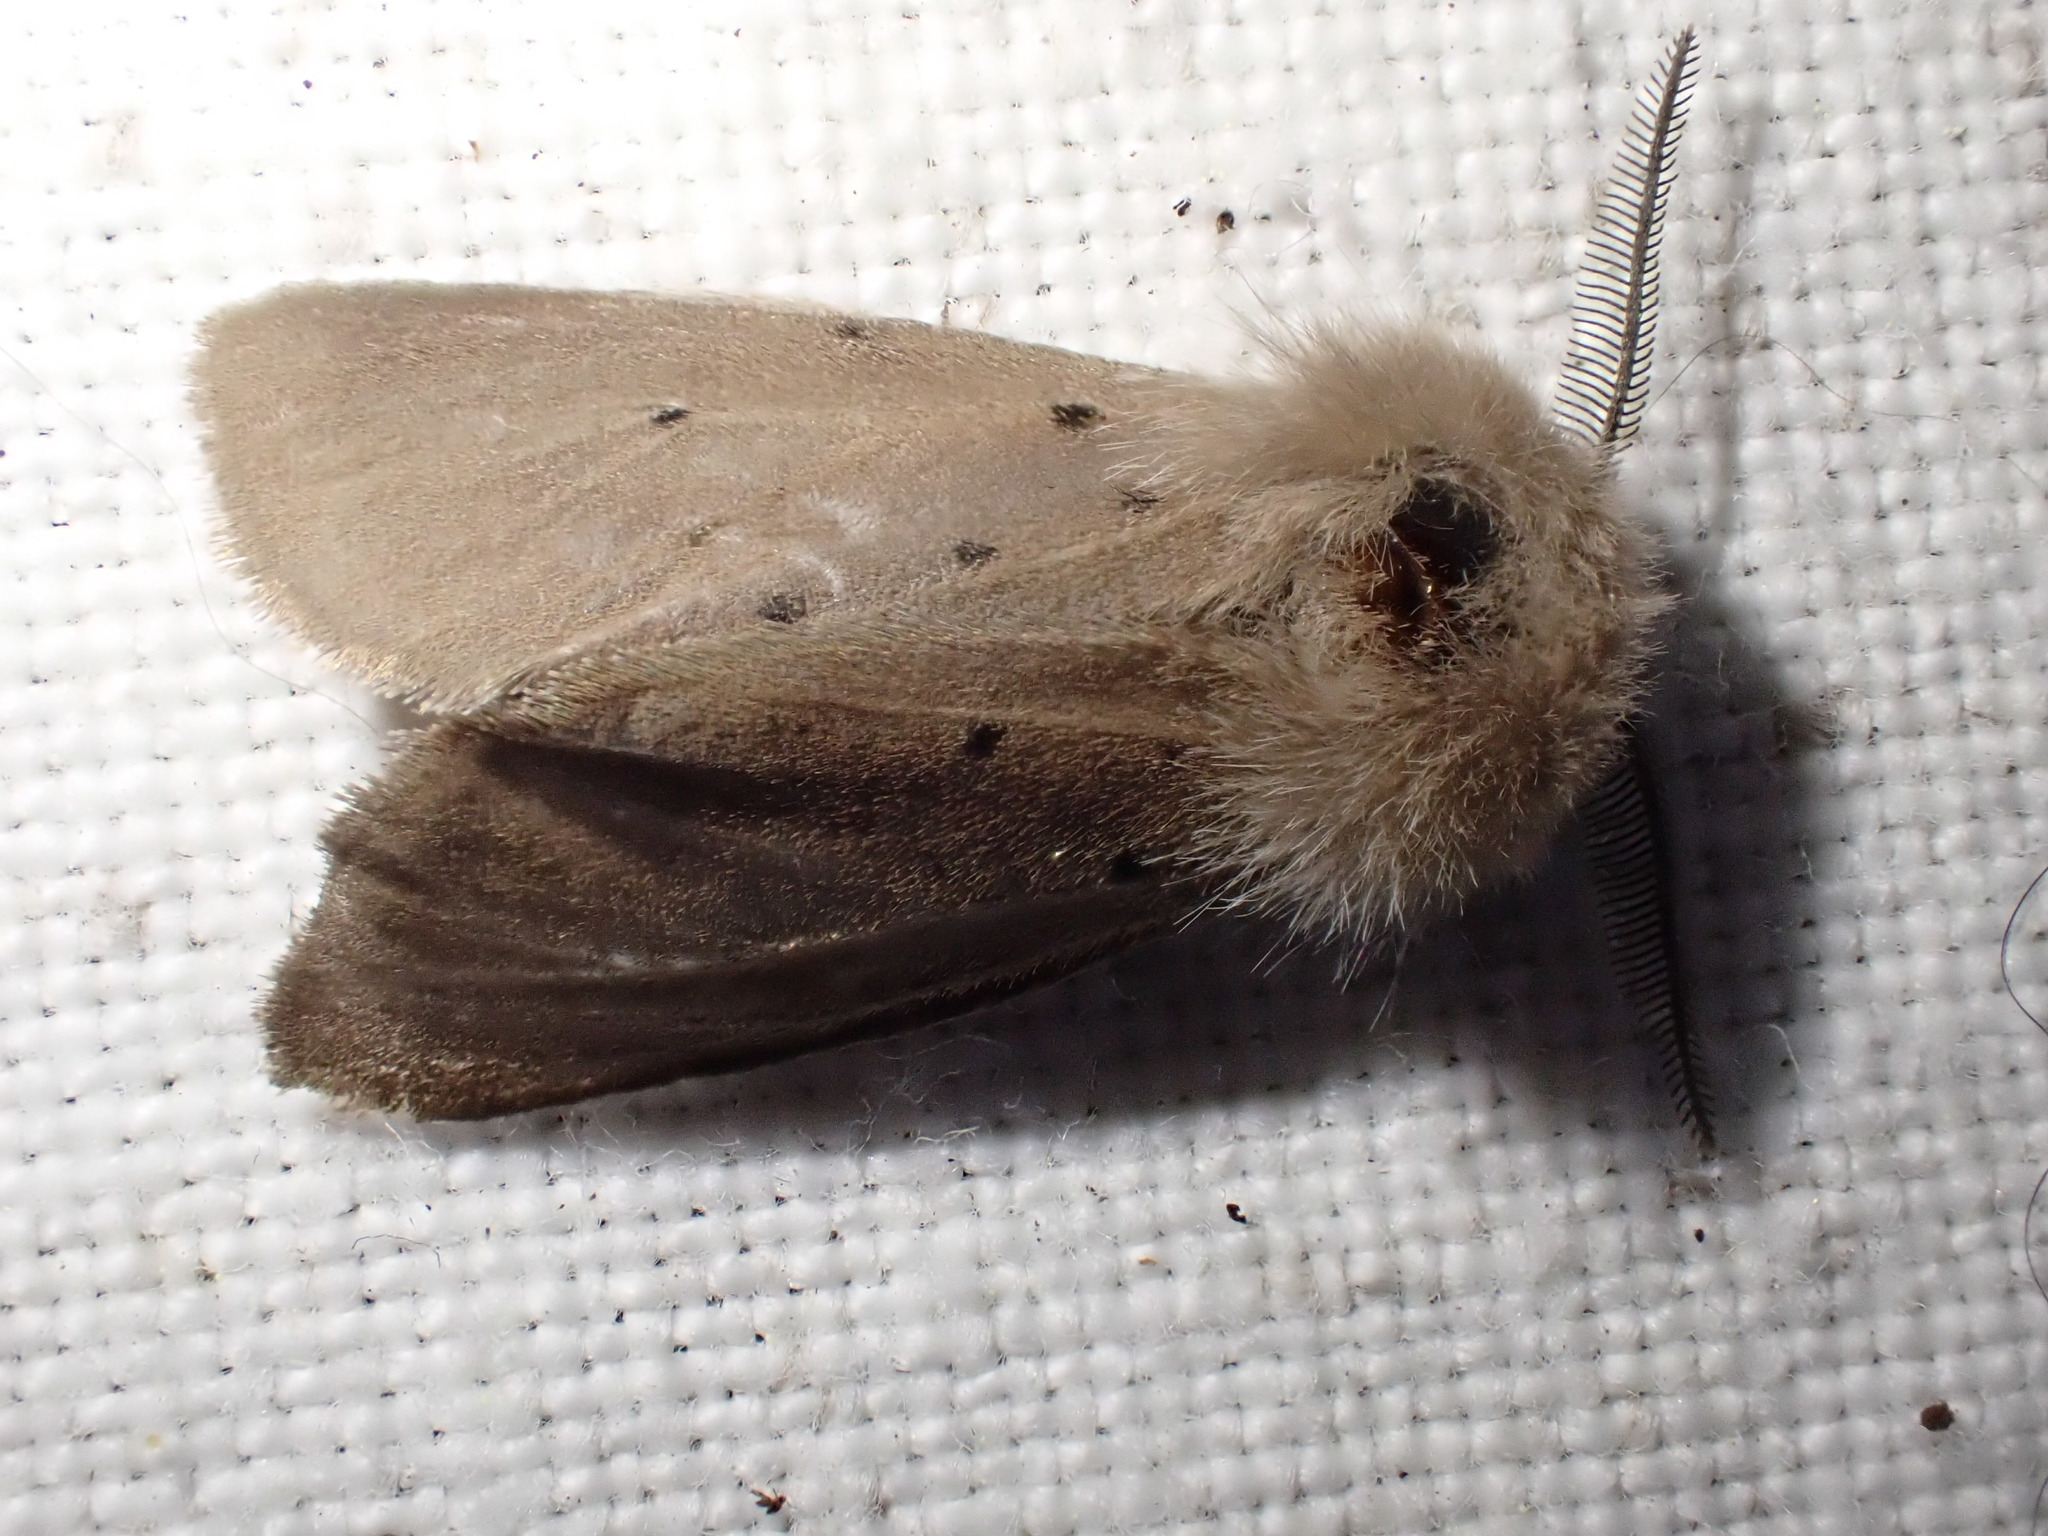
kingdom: Animalia
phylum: Arthropoda
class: Insecta
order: Lepidoptera
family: Erebidae
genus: Diaphora
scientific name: Diaphora mendica
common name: Muslin moth
